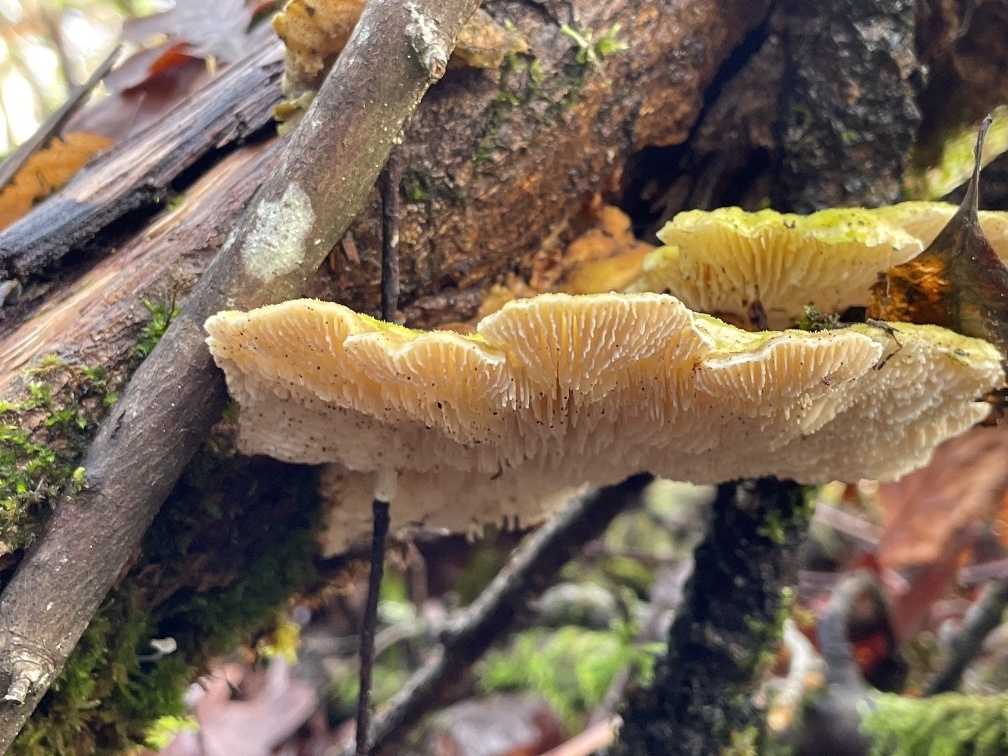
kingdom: Fungi
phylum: Basidiomycota
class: Agaricomycetes
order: Polyporales
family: Polyporaceae
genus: Lenzites
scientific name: Lenzites betulinus
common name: Birch mazegill
